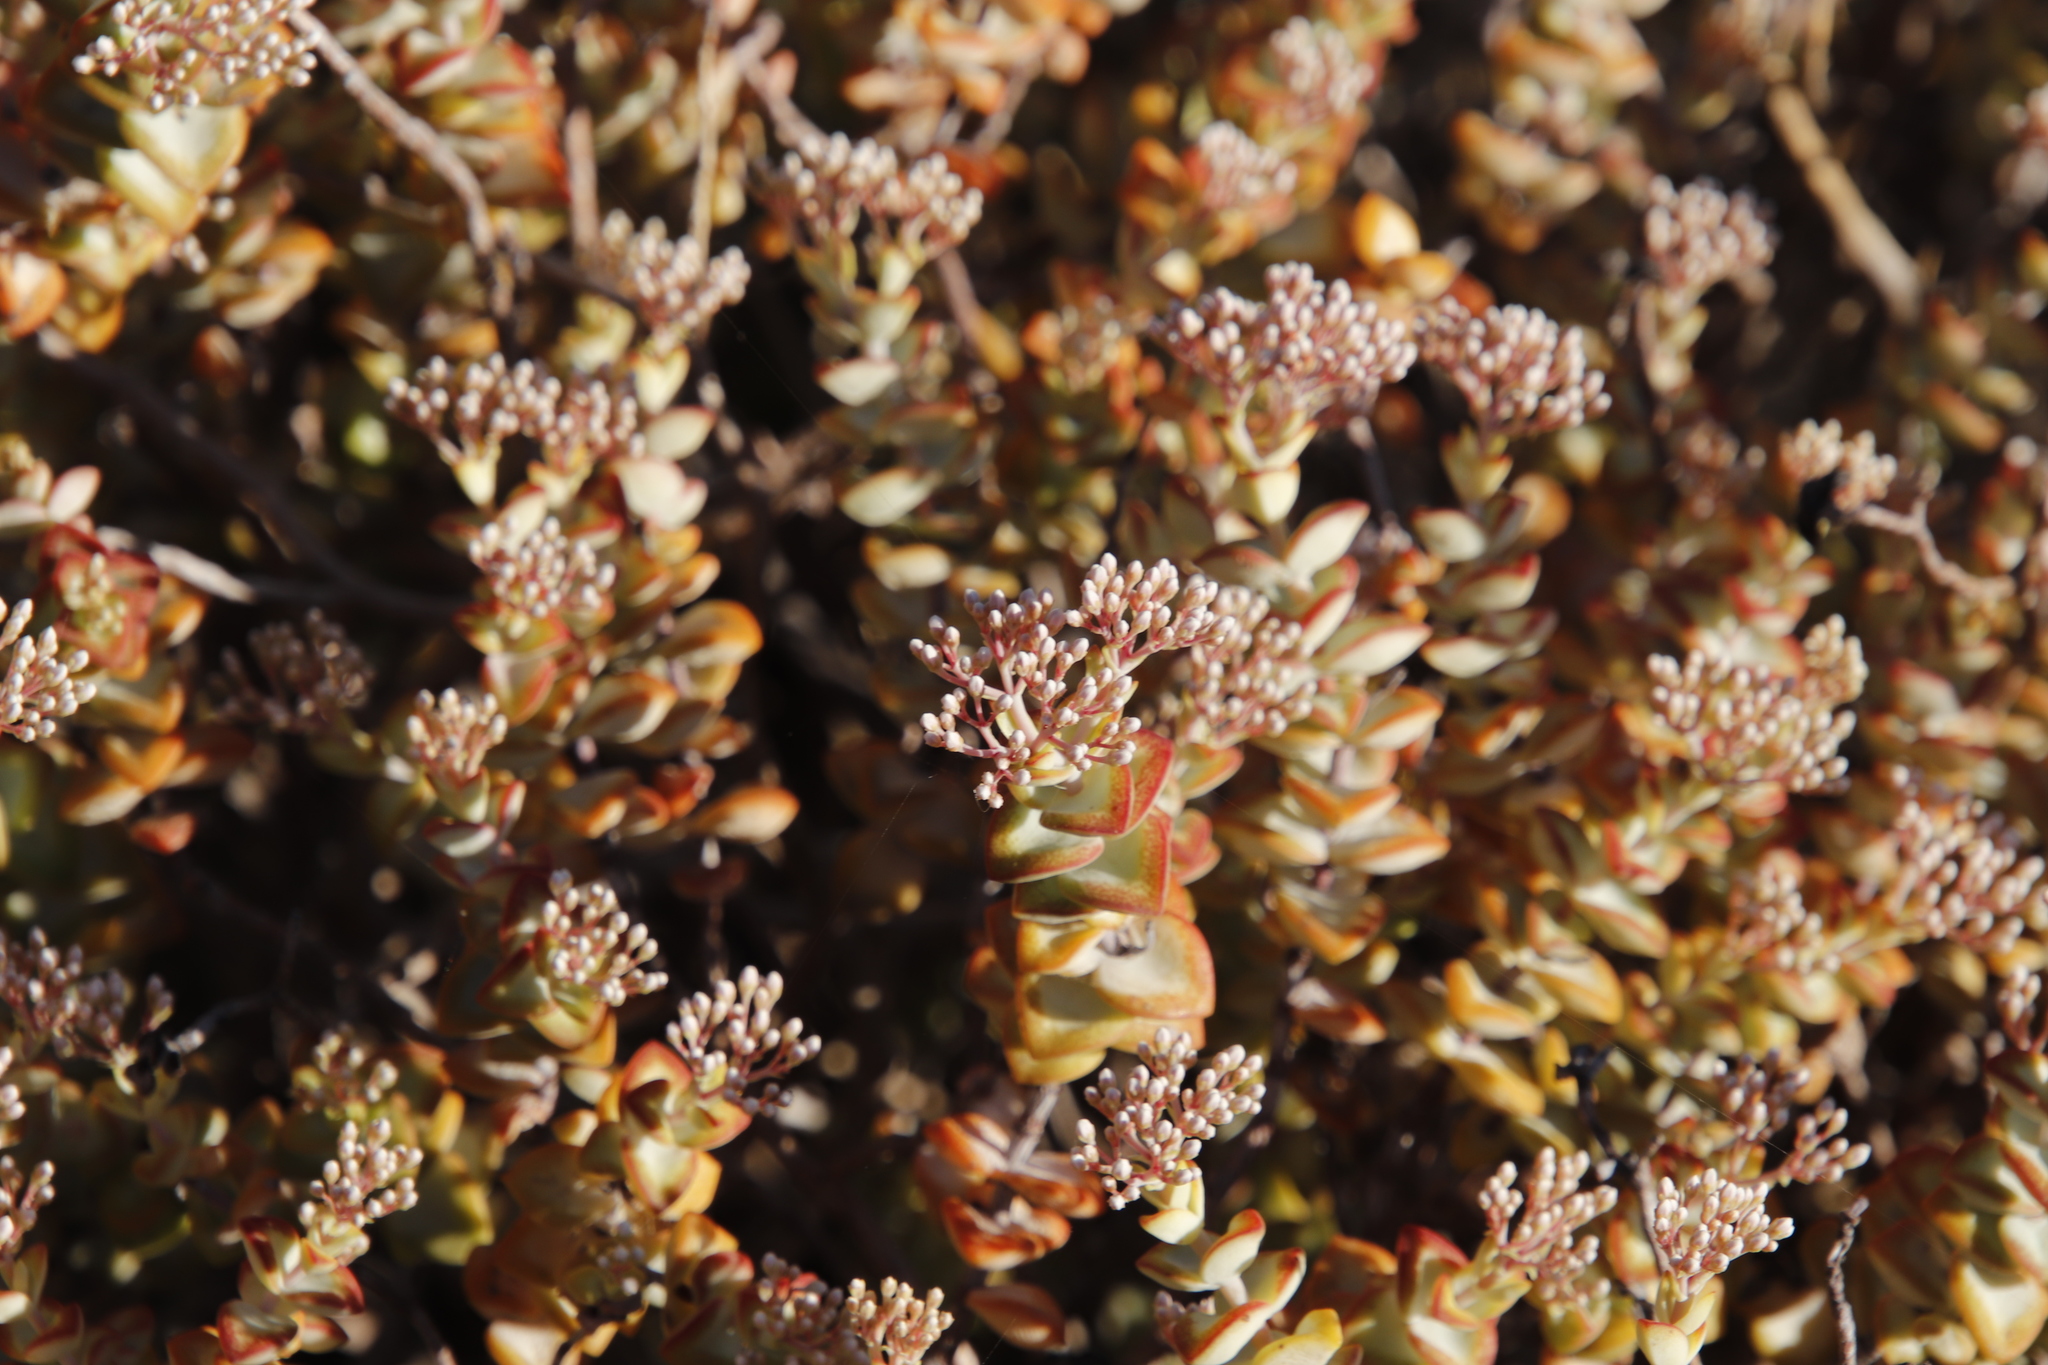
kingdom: Plantae
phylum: Tracheophyta
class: Magnoliopsida
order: Saxifragales
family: Crassulaceae
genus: Crassula
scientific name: Crassula rupestris
